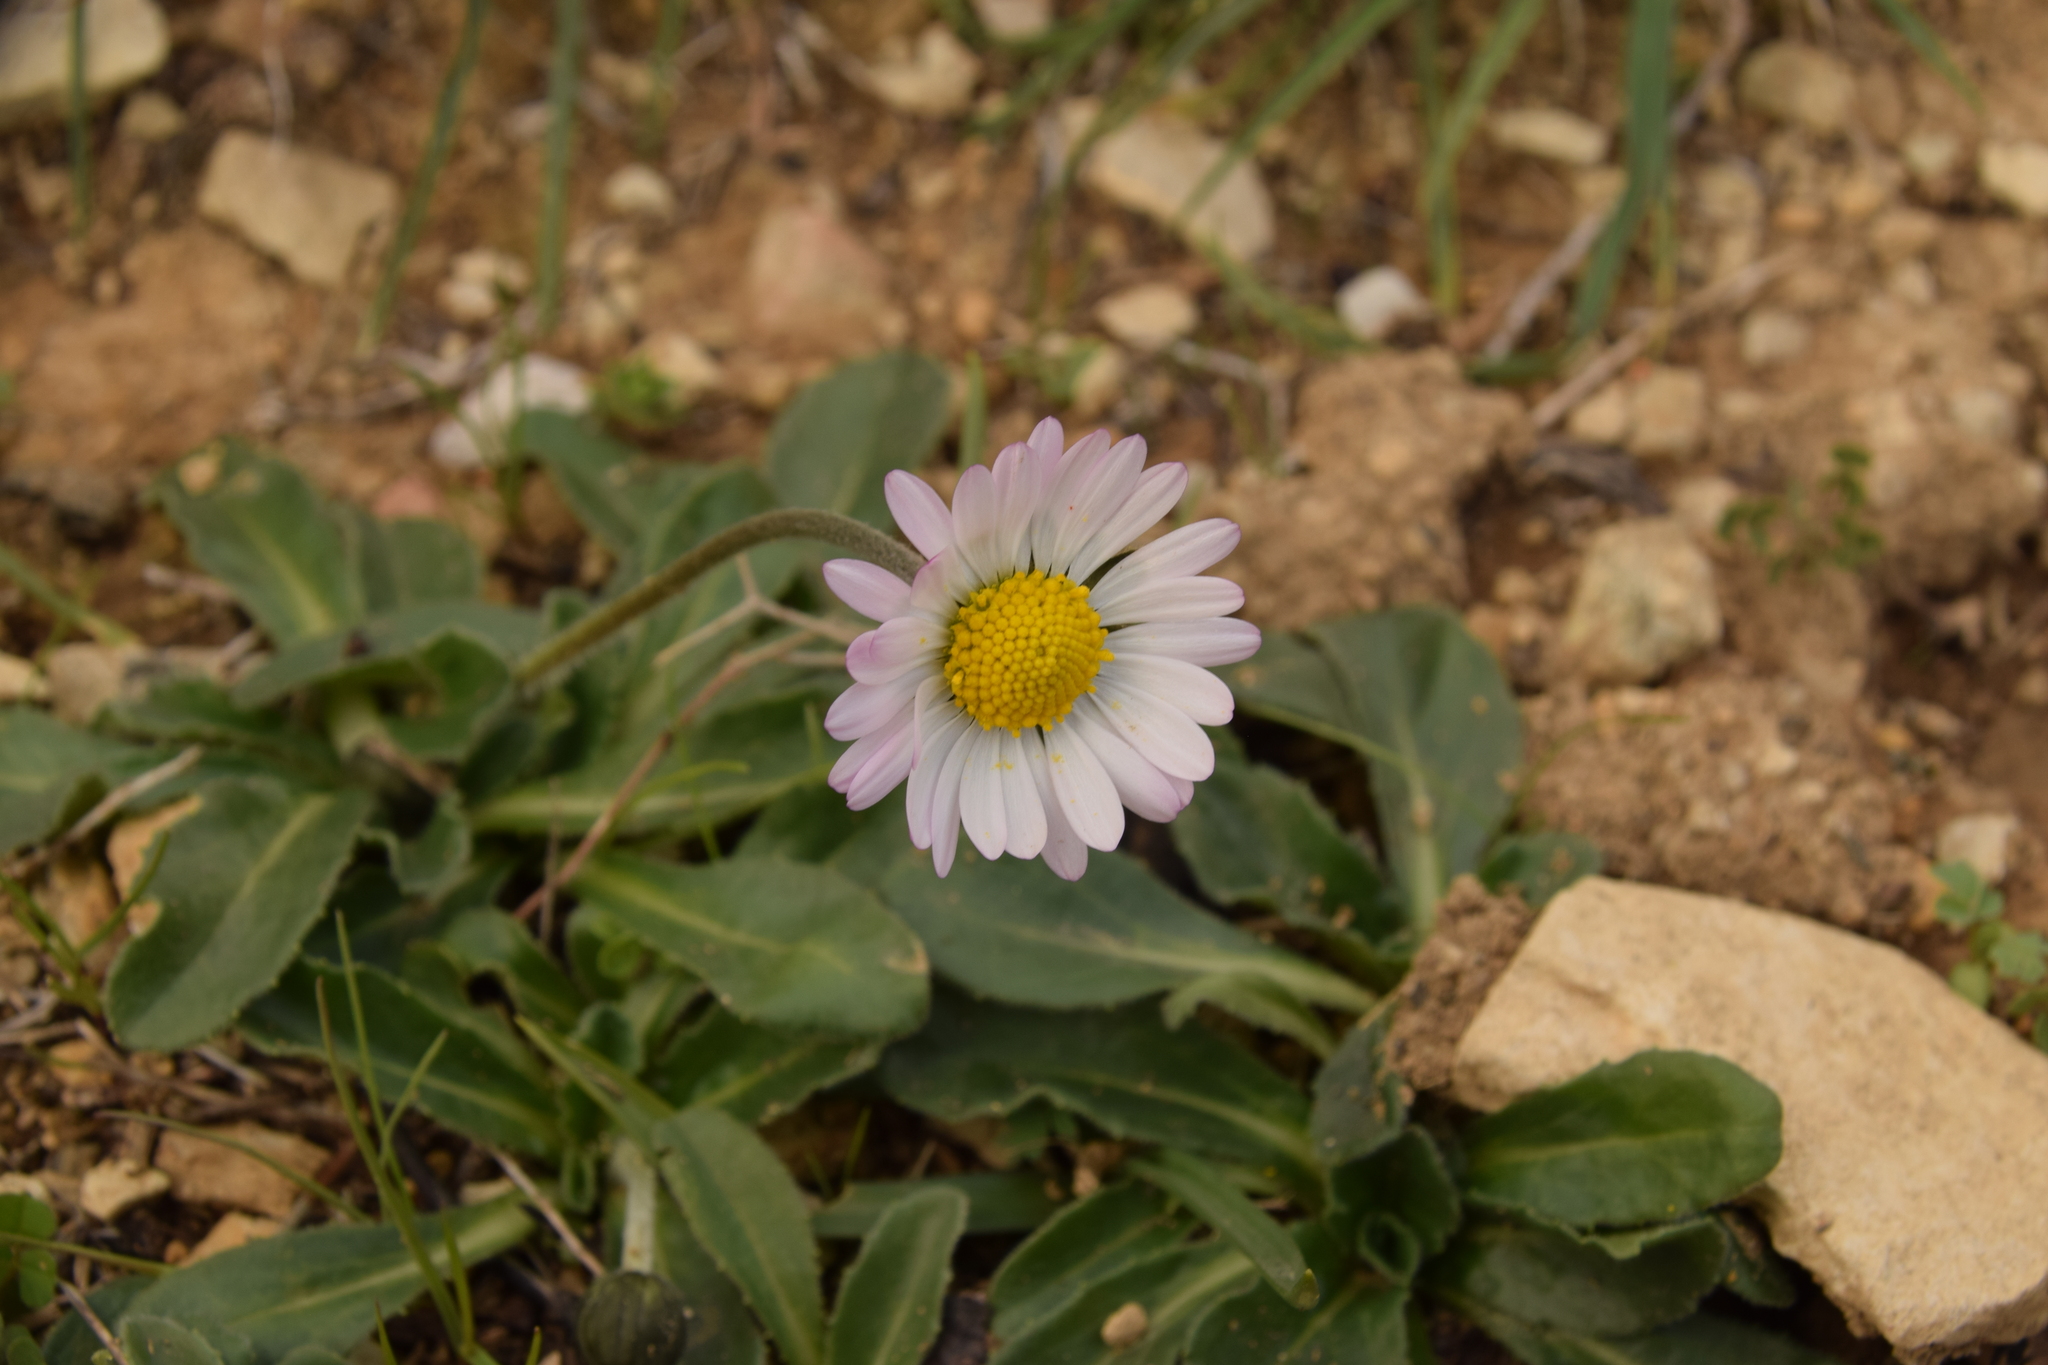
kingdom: Plantae
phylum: Tracheophyta
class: Magnoliopsida
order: Asterales
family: Asteraceae
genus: Bellis
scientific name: Bellis sylvestris
